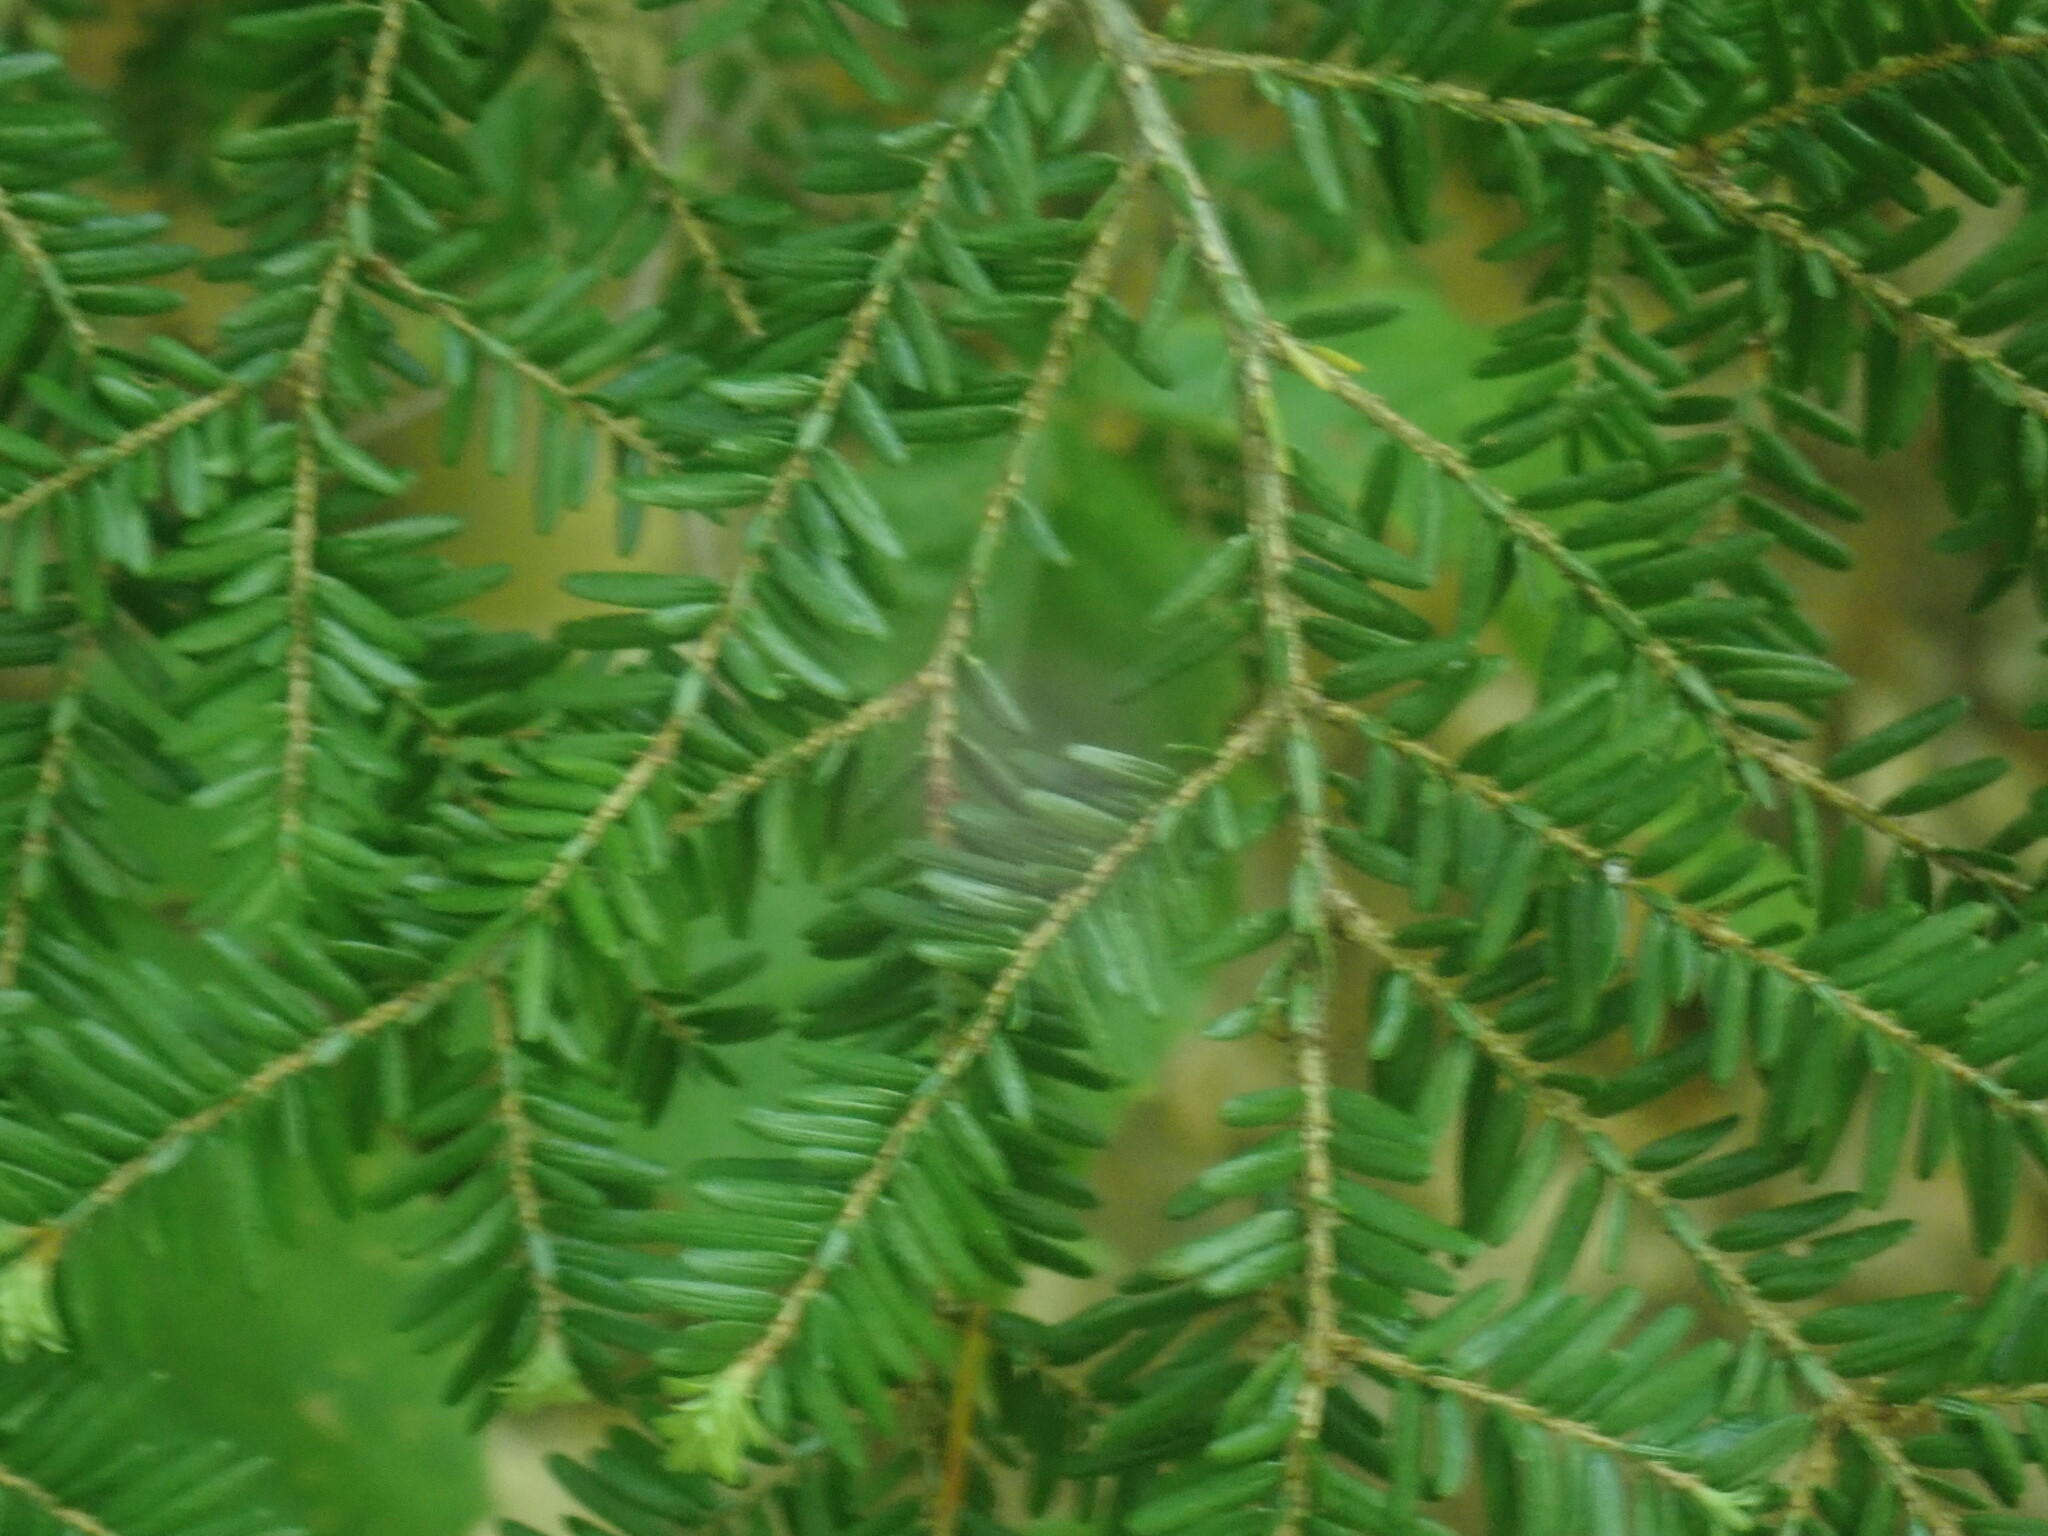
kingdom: Plantae
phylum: Tracheophyta
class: Pinopsida
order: Pinales
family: Pinaceae
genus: Tsuga
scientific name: Tsuga canadensis
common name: Eastern hemlock
